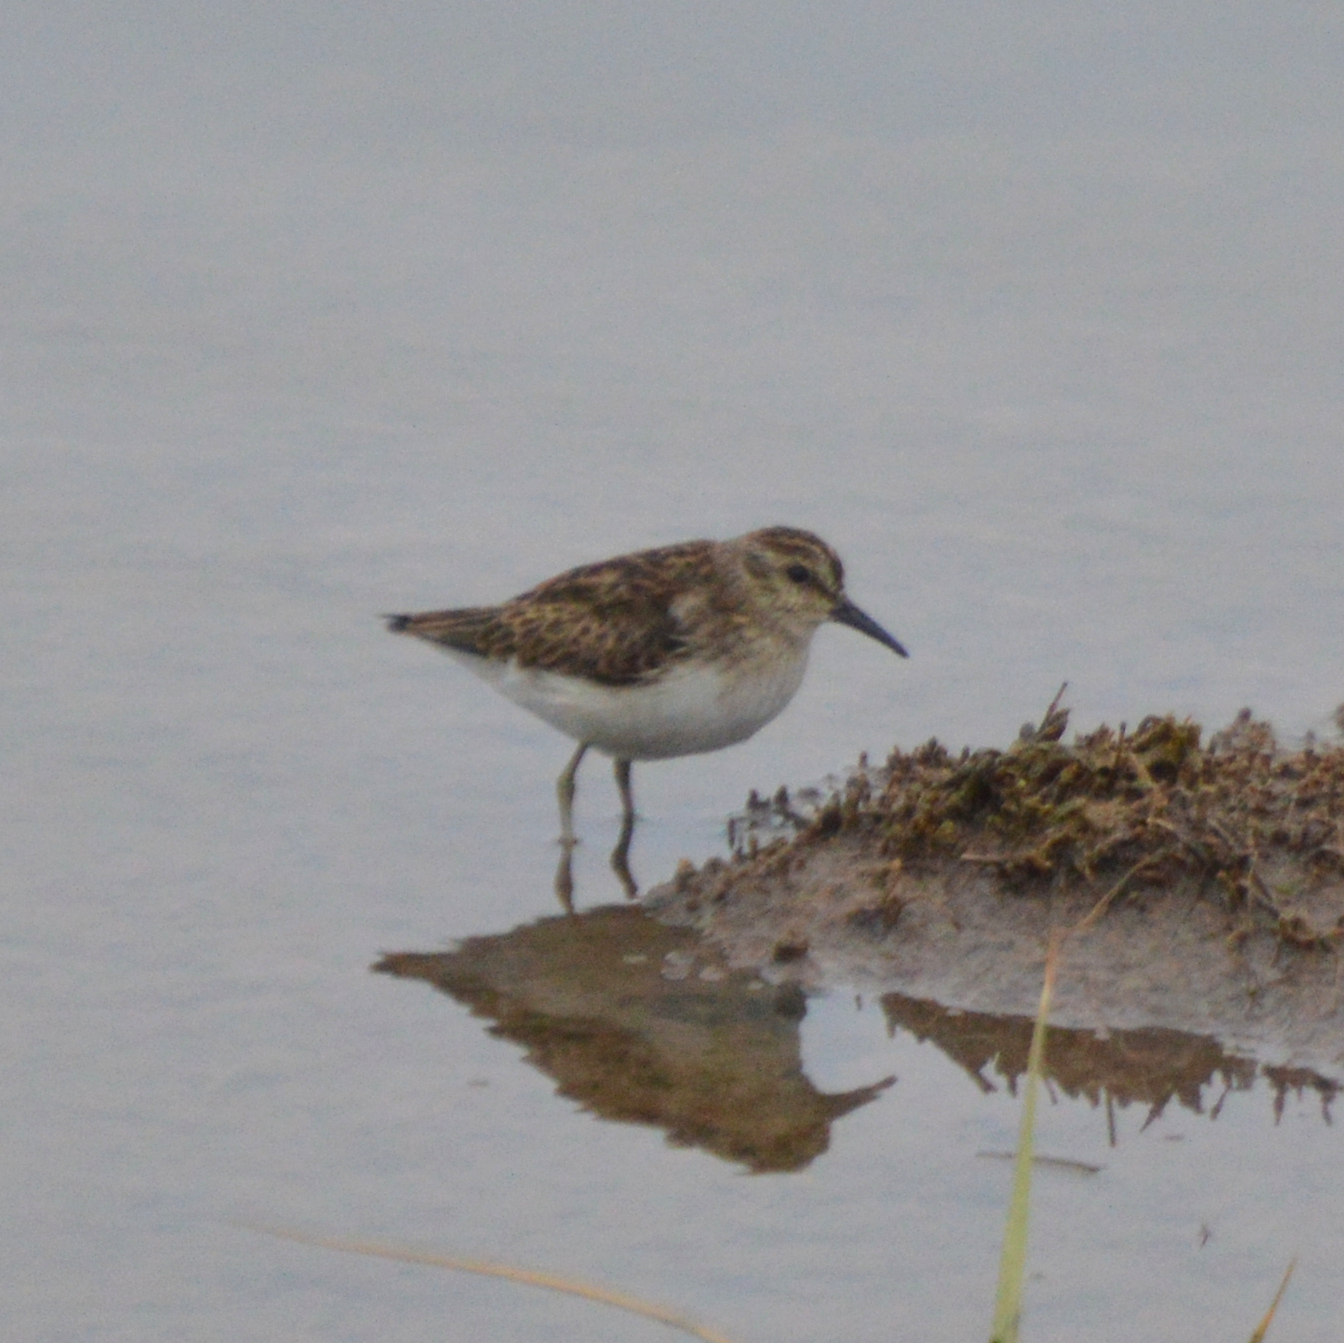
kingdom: Animalia
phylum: Chordata
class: Aves
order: Charadriiformes
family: Scolopacidae
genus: Calidris
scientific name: Calidris minutilla
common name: Least sandpiper
